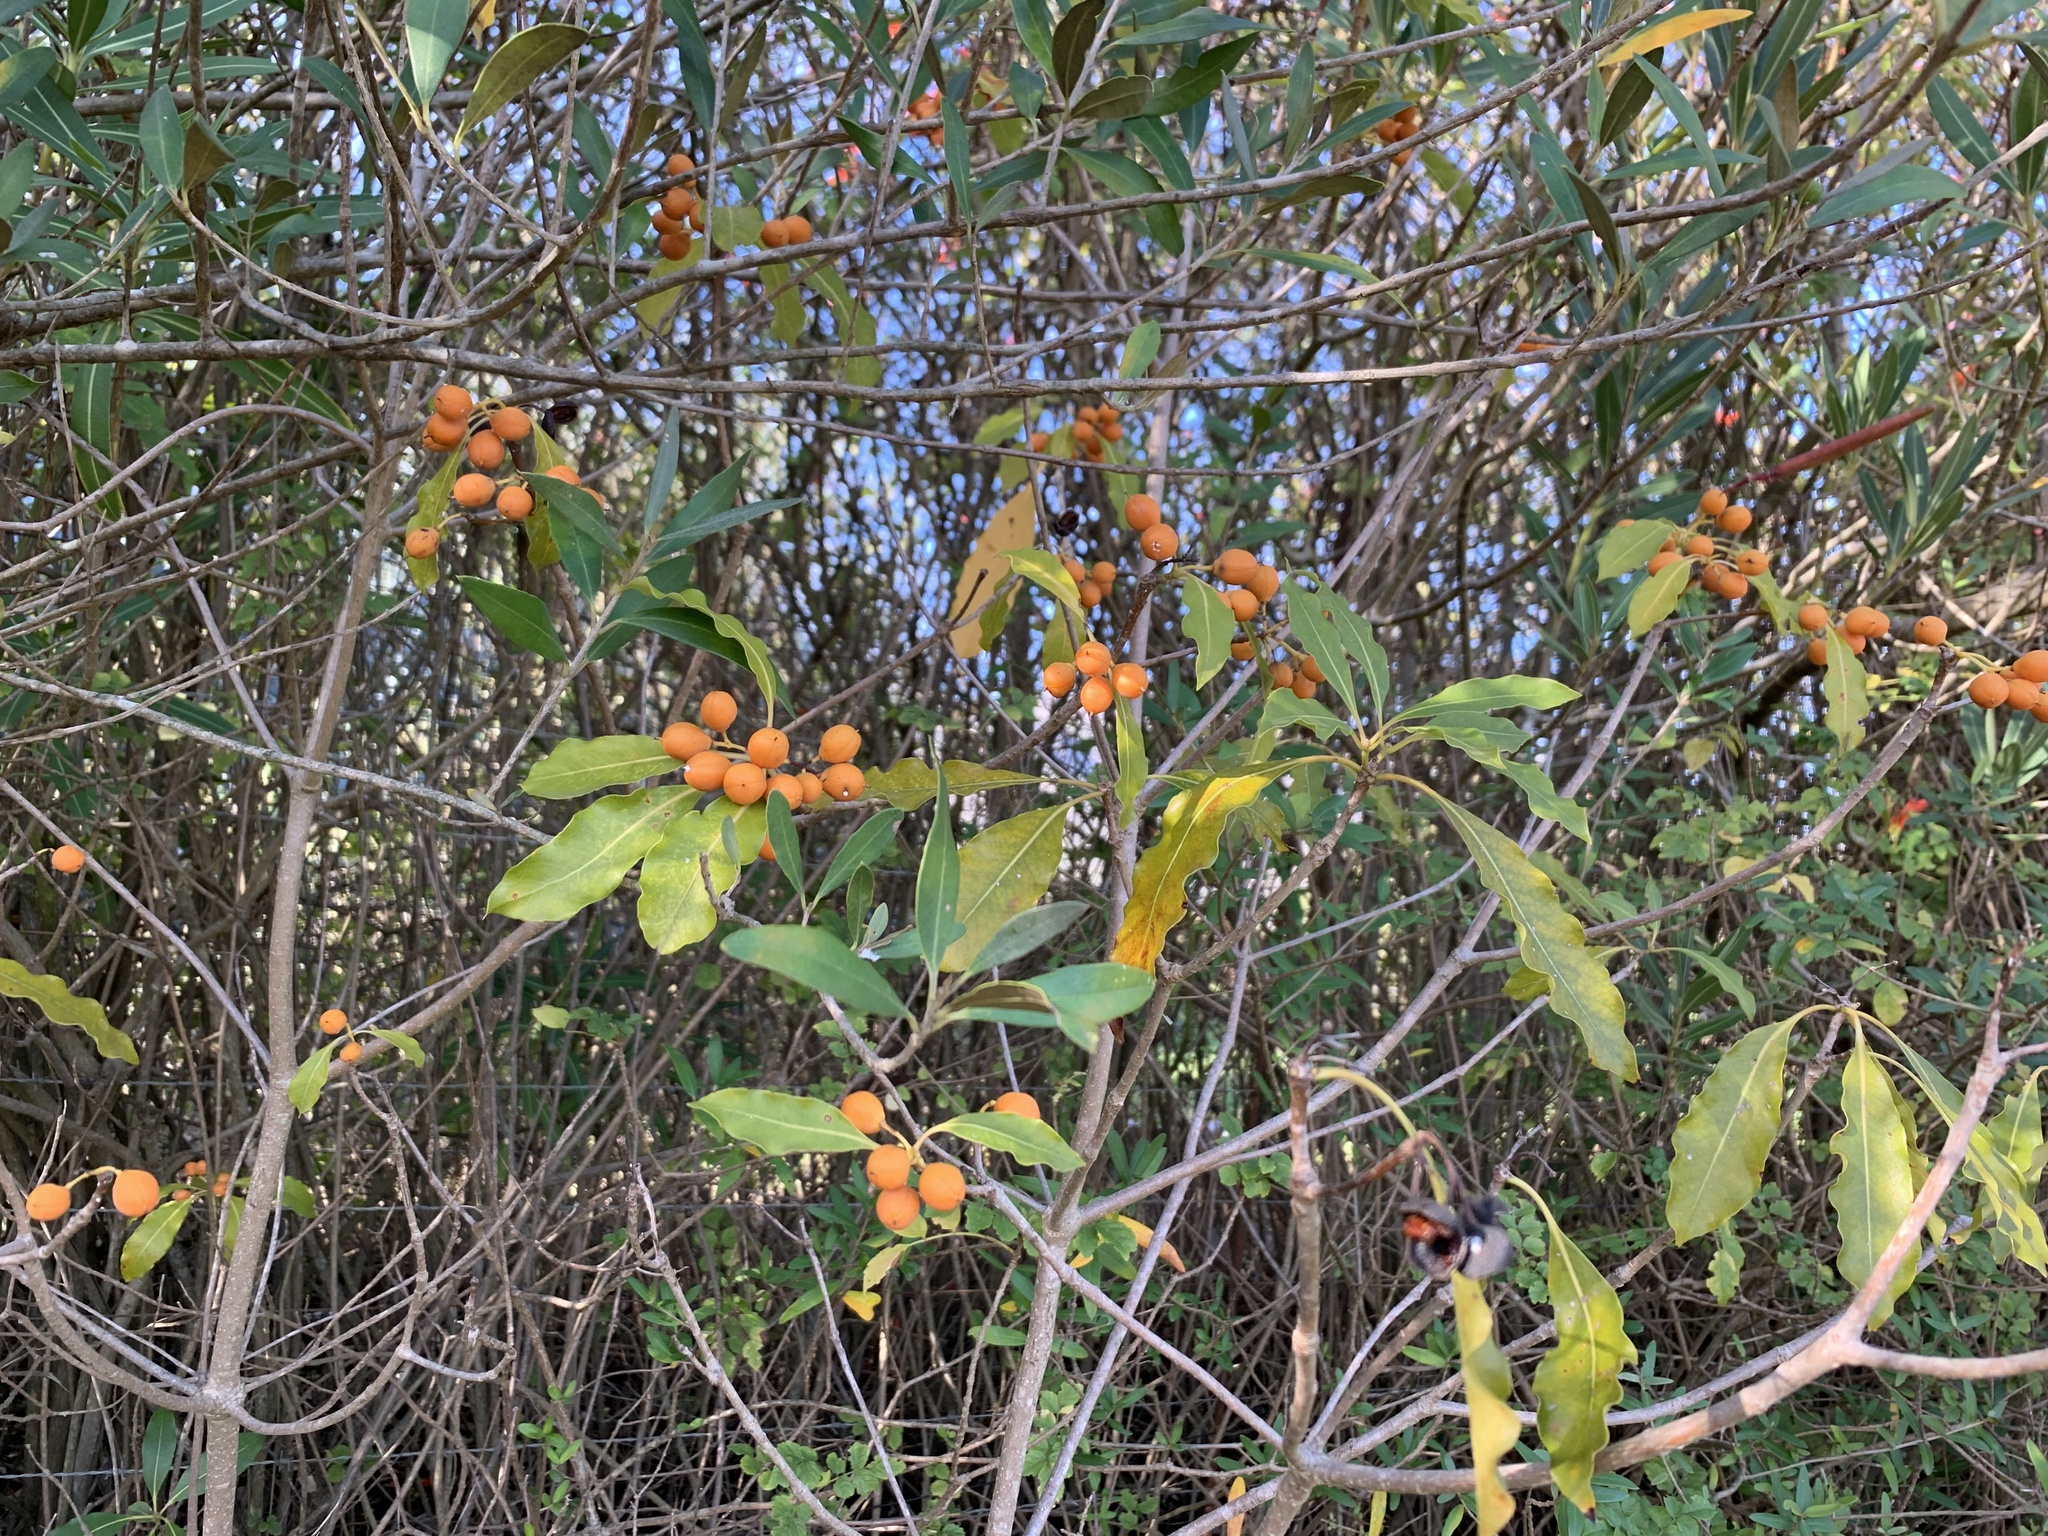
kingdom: Plantae
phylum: Tracheophyta
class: Magnoliopsida
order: Apiales
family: Pittosporaceae
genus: Pittosporum
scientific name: Pittosporum undulatum
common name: Australian cheesewood
